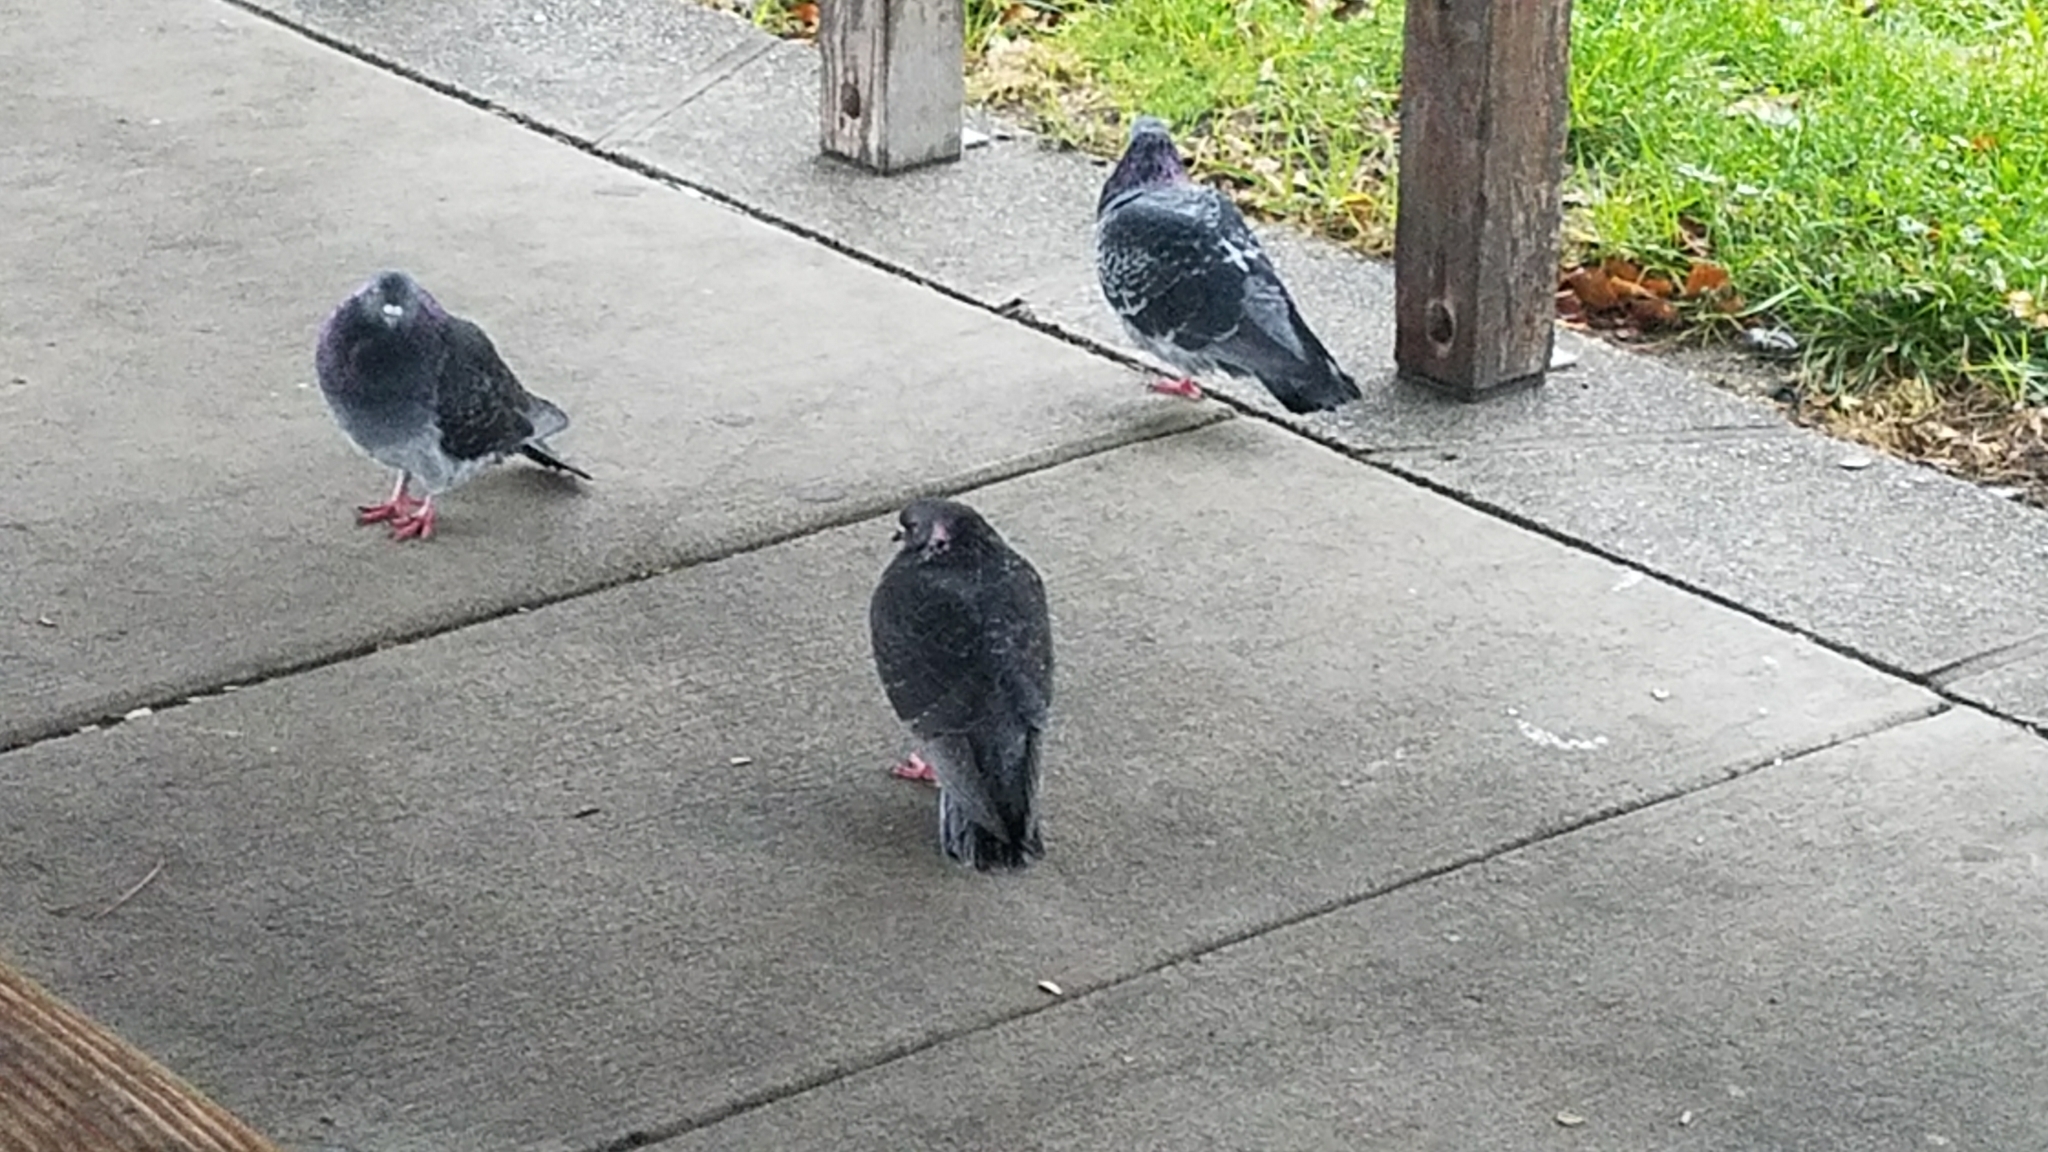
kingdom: Animalia
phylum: Chordata
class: Aves
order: Columbiformes
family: Columbidae
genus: Columba
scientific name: Columba livia
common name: Rock pigeon
